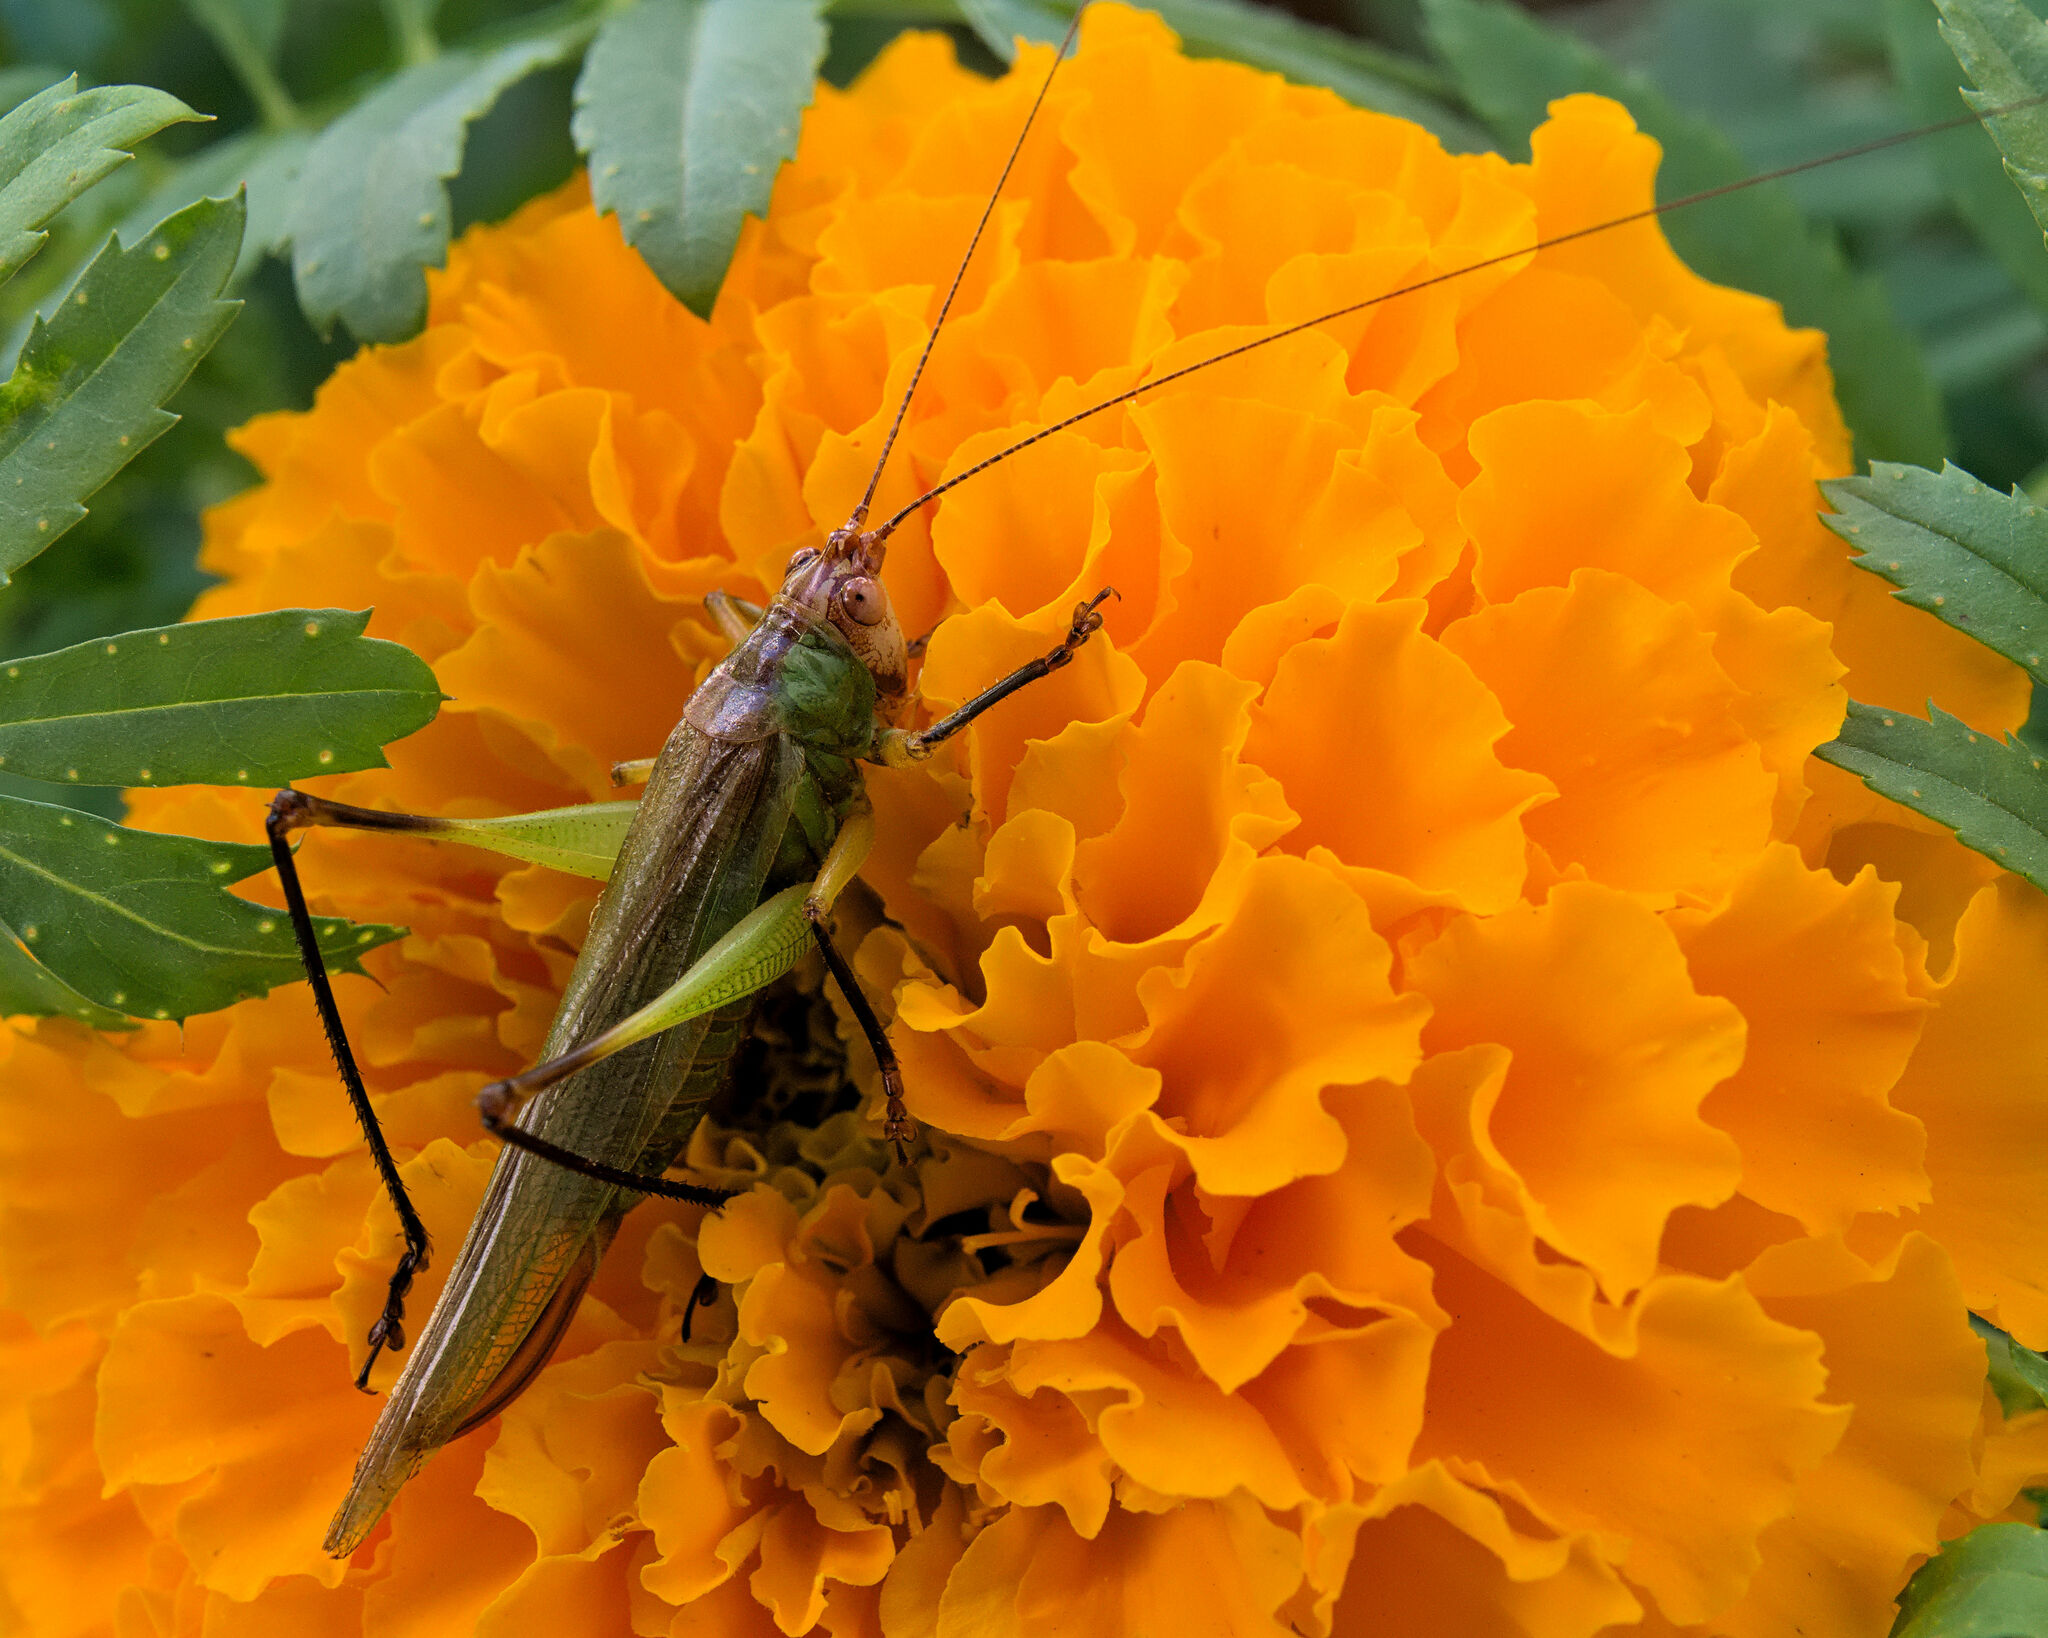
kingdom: Animalia
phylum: Arthropoda
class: Insecta
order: Orthoptera
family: Tettigoniidae
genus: Orchelimum
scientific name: Orchelimum nigripes
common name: Black-legged meadow katydid
